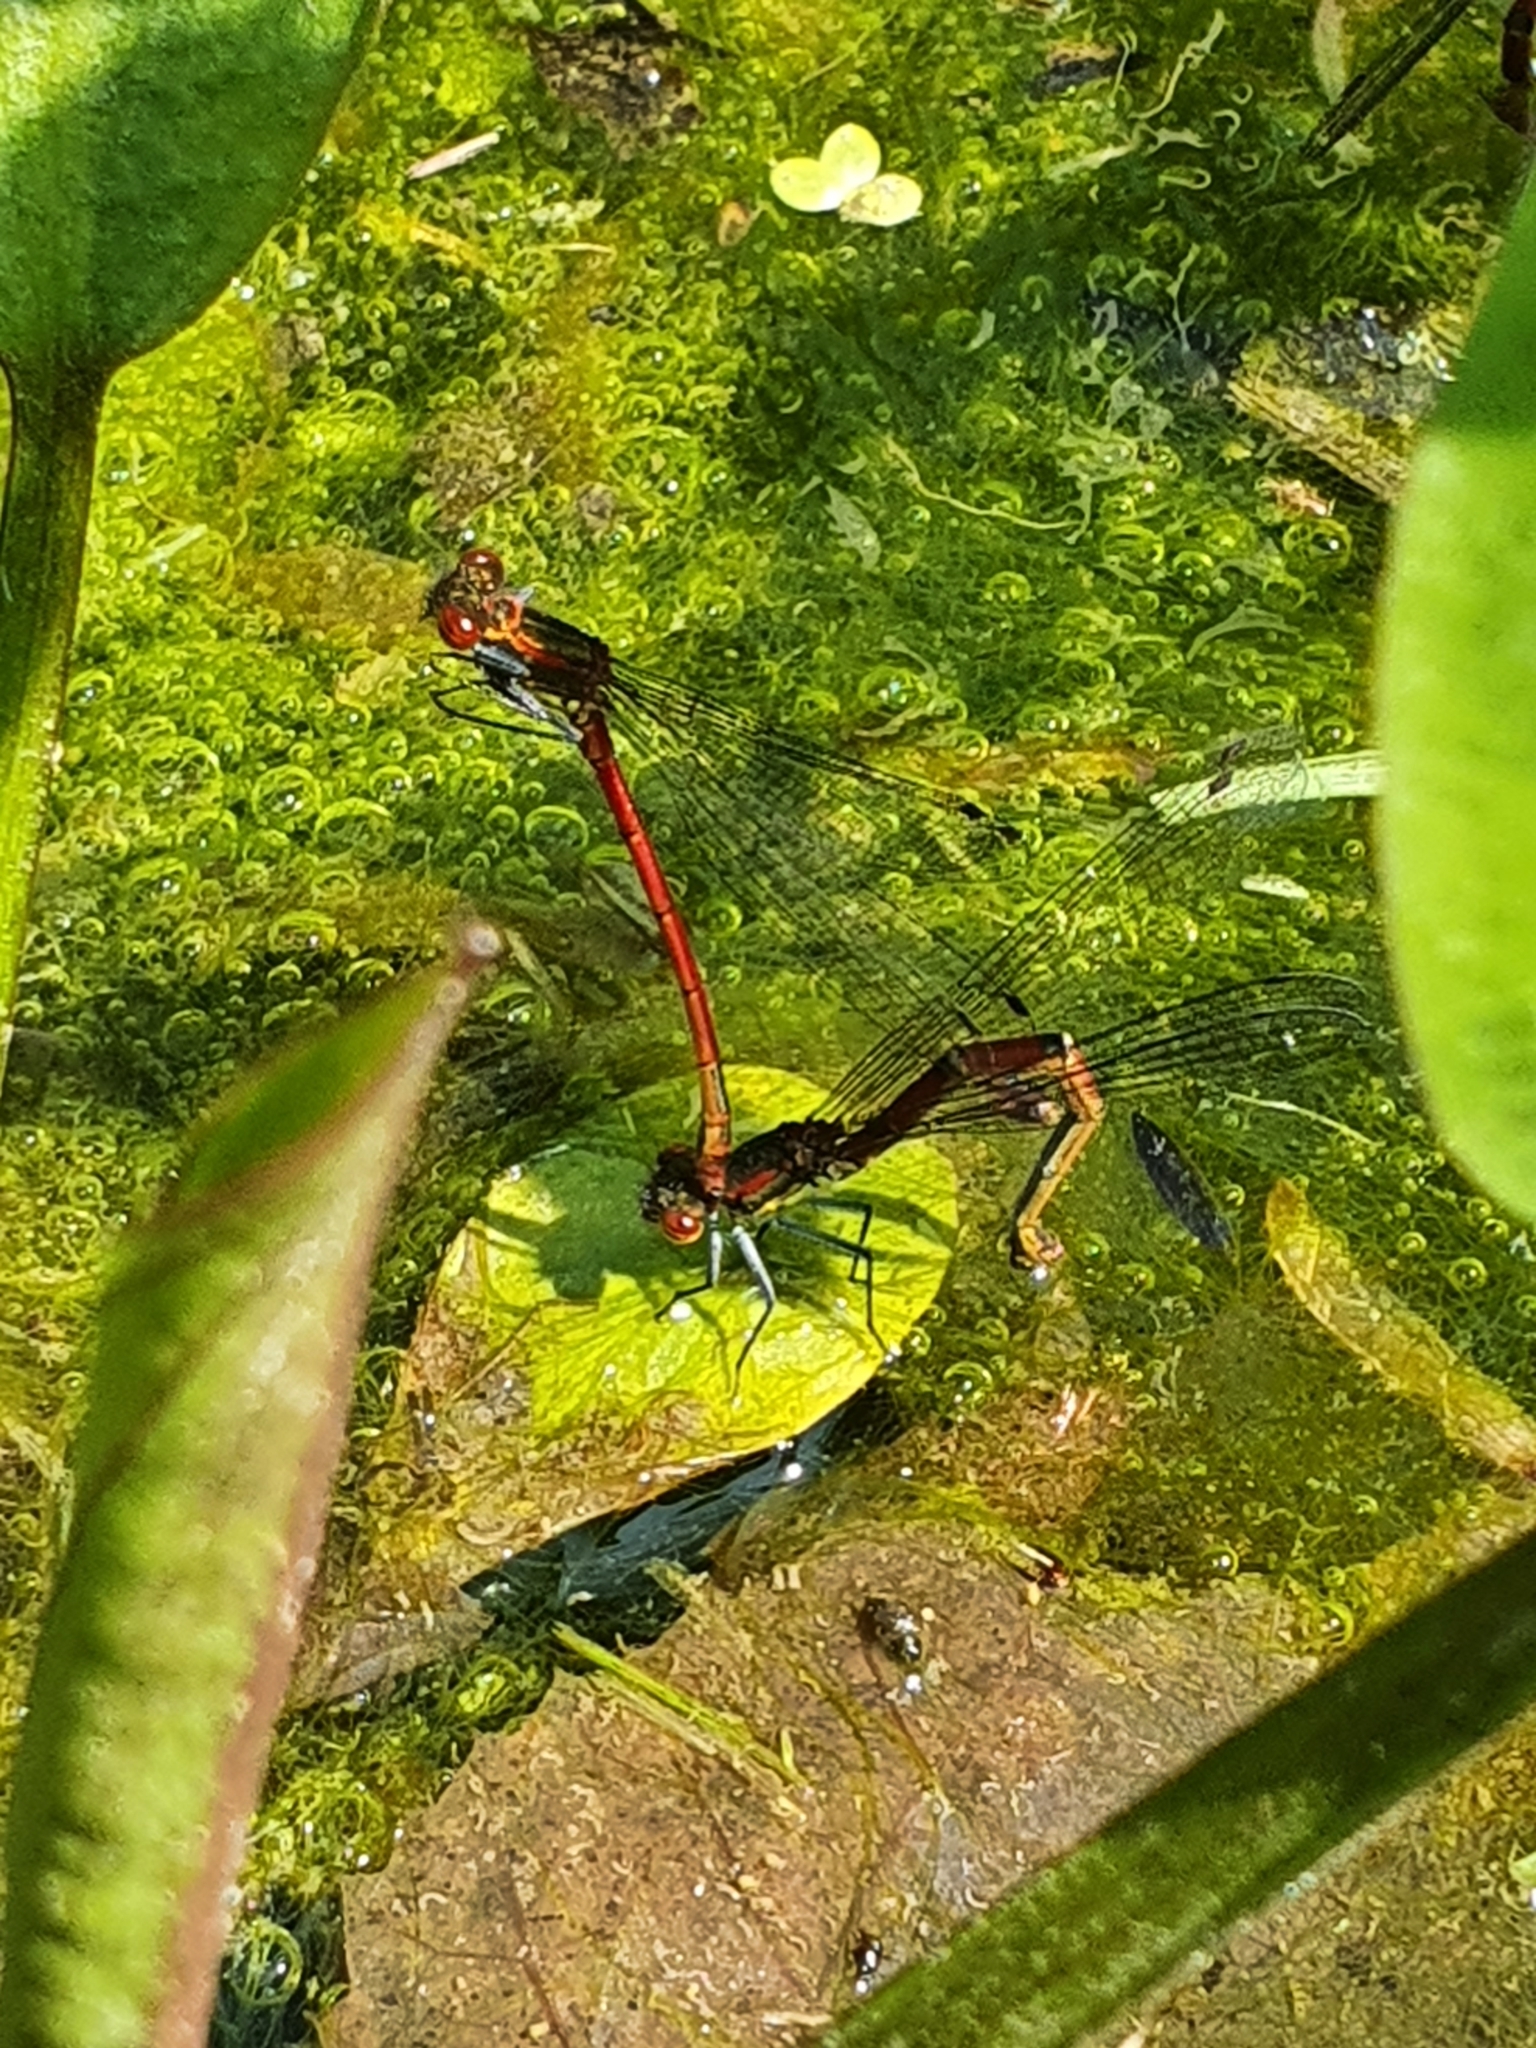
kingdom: Animalia
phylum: Arthropoda
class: Insecta
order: Odonata
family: Coenagrionidae
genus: Pyrrhosoma
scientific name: Pyrrhosoma nymphula
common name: Large red damsel
